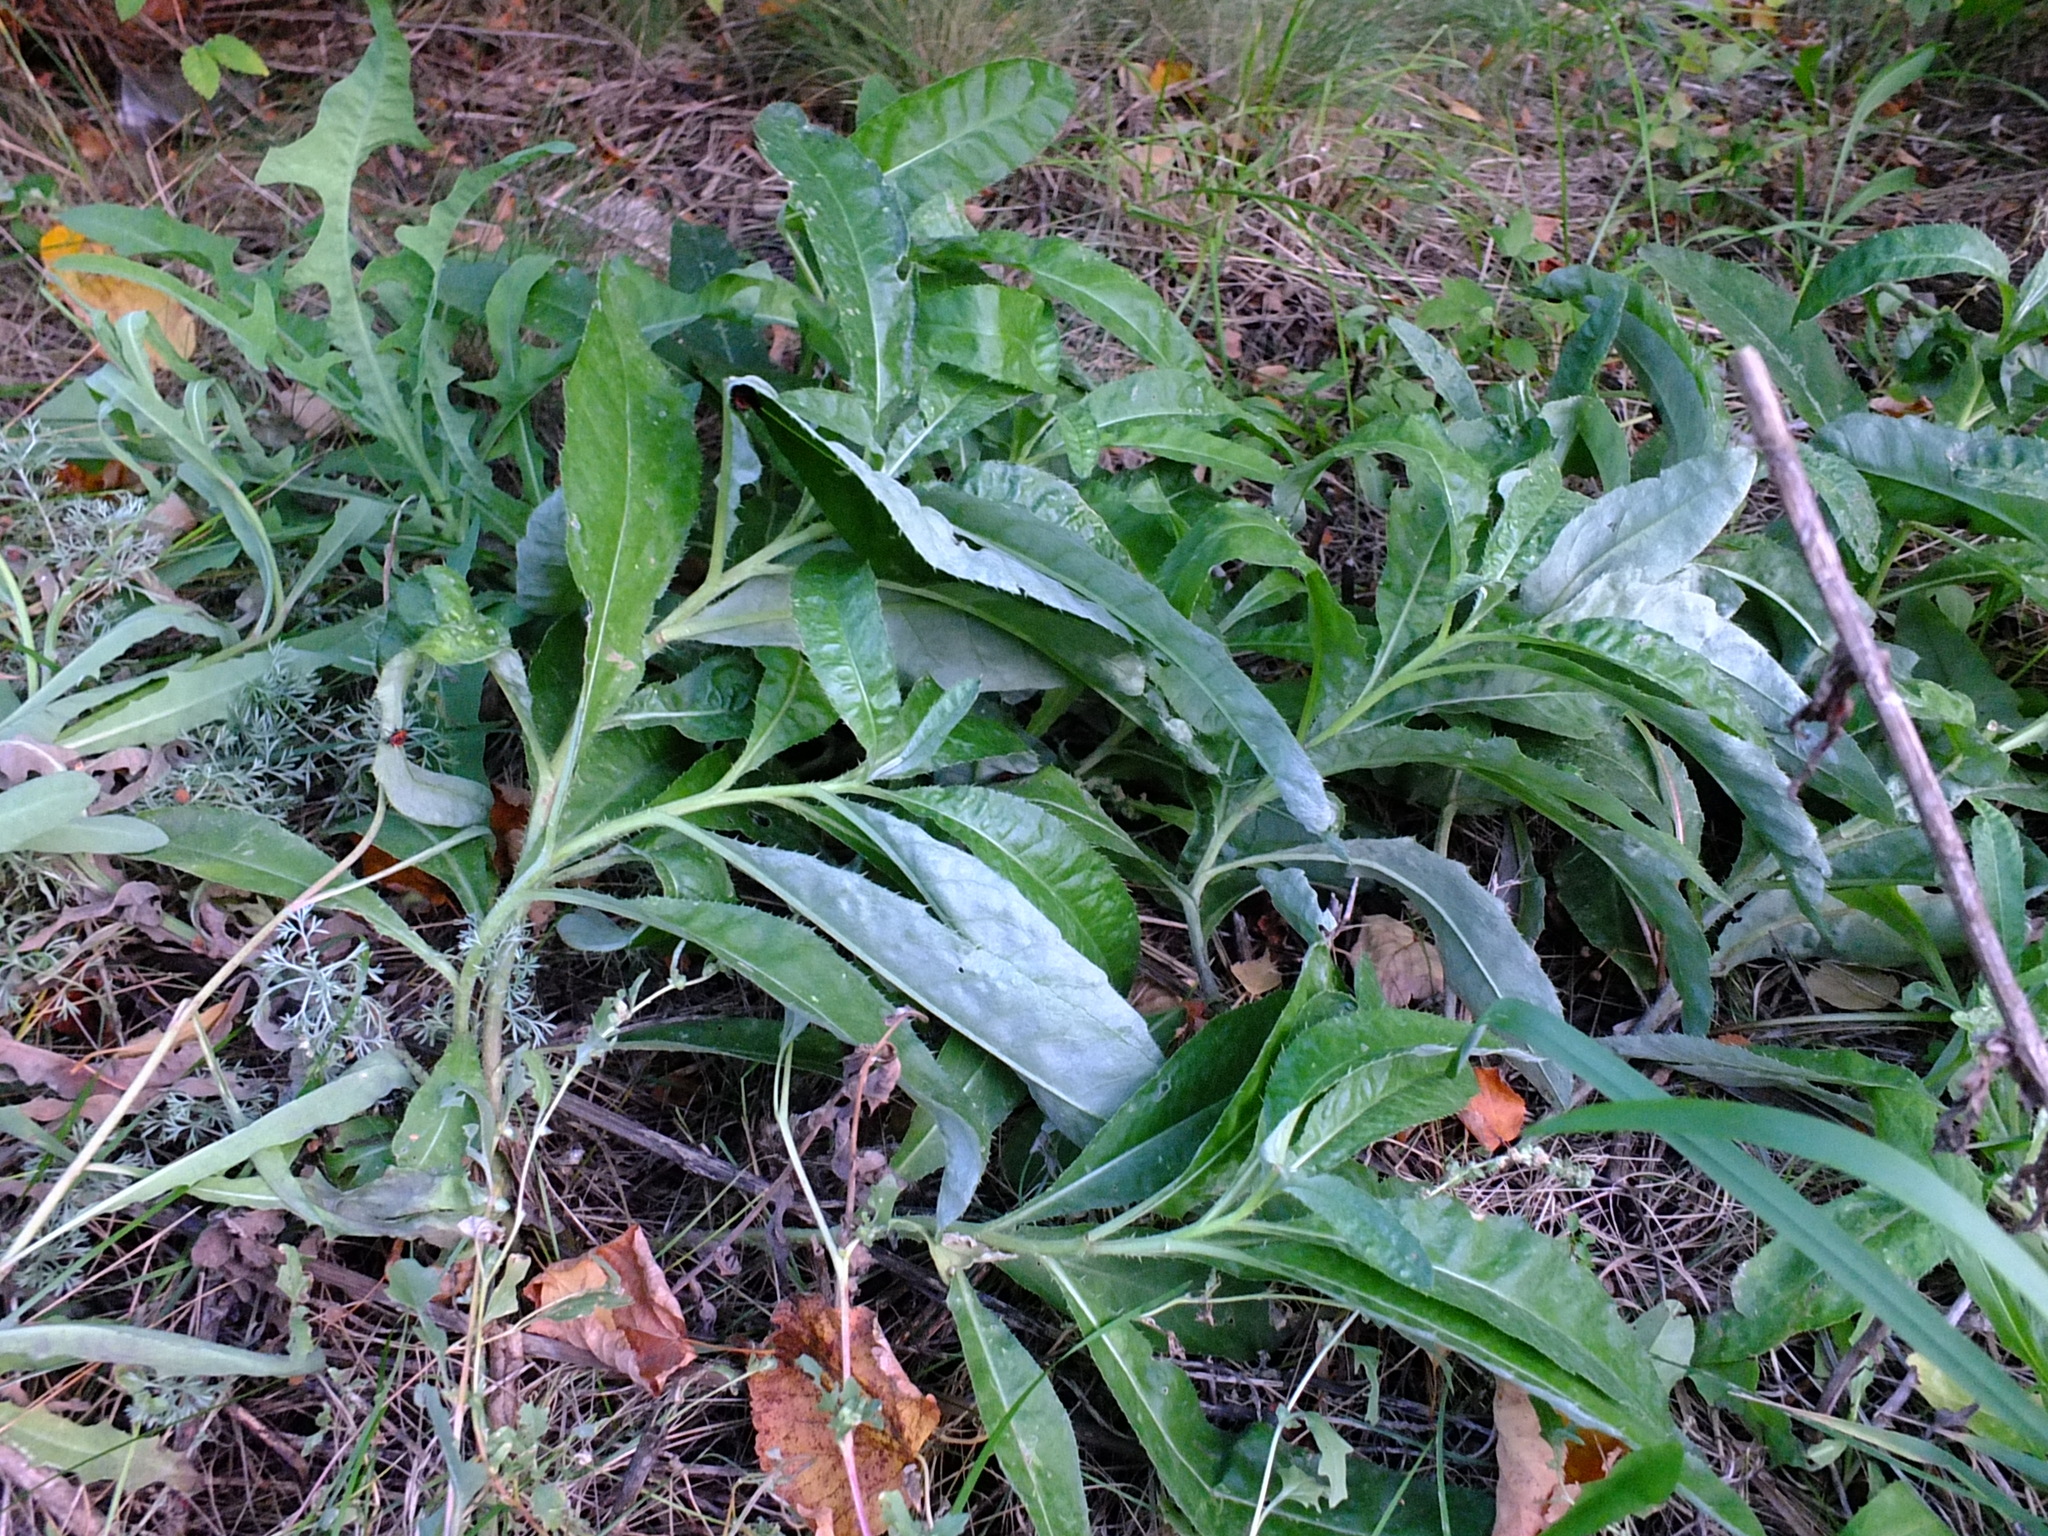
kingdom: Plantae
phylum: Tracheophyta
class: Magnoliopsida
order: Asterales
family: Asteraceae
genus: Cirsium
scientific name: Cirsium arvense
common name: Creeping thistle
